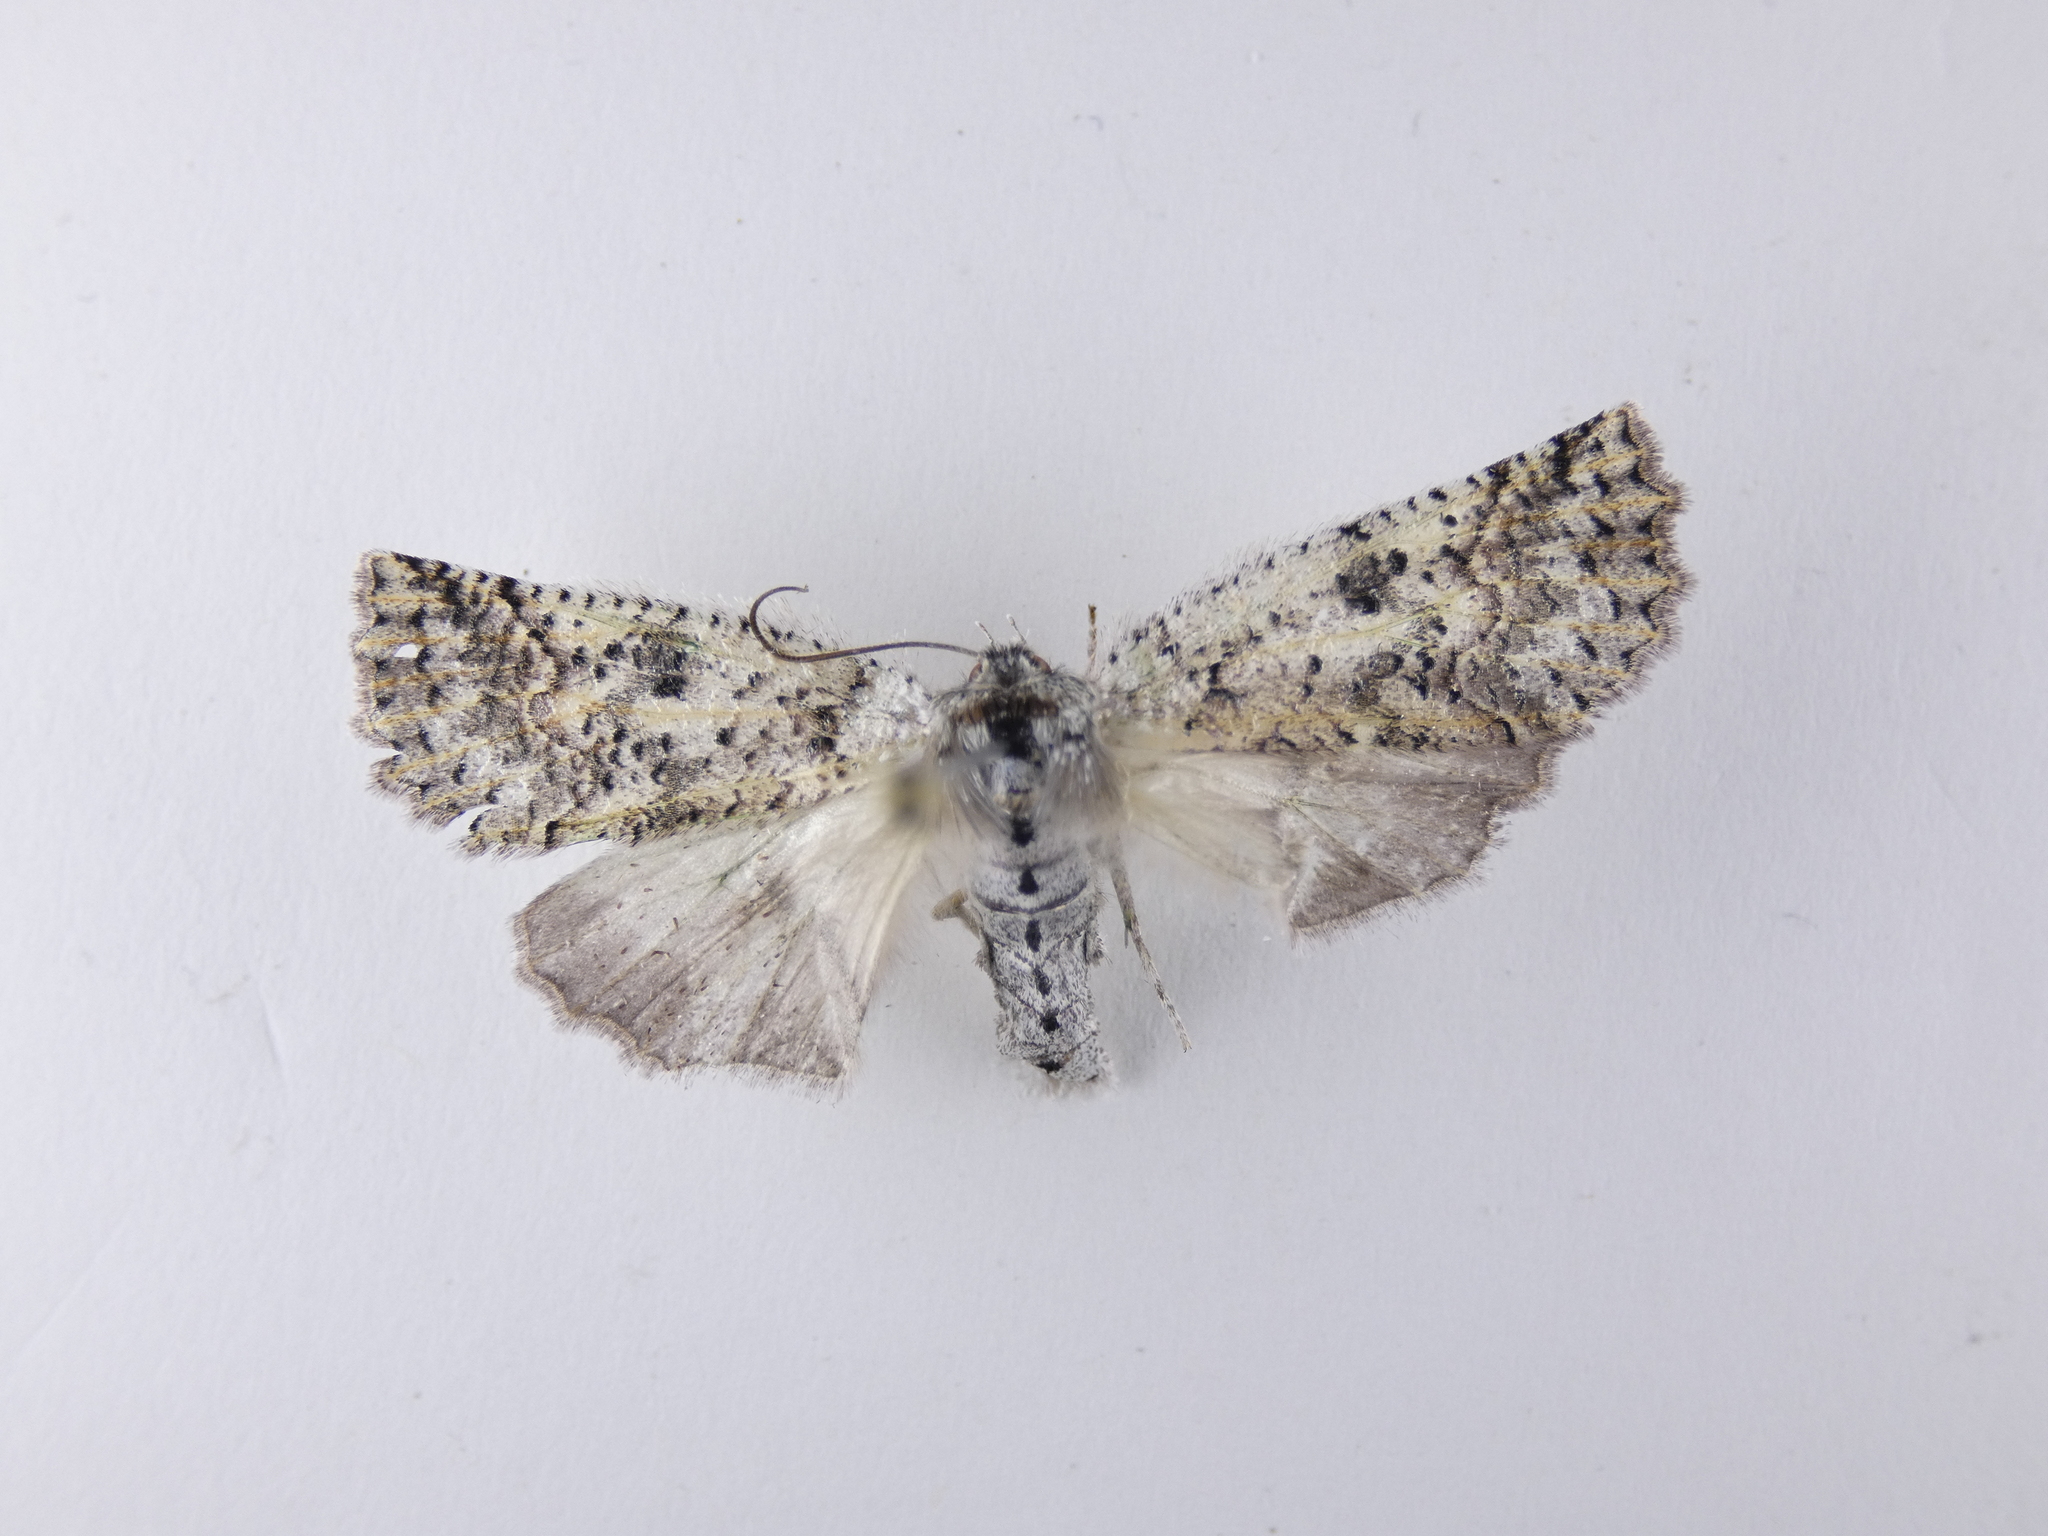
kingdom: Animalia
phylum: Arthropoda
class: Insecta
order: Lepidoptera
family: Geometridae
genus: Declana
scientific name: Declana floccosa
